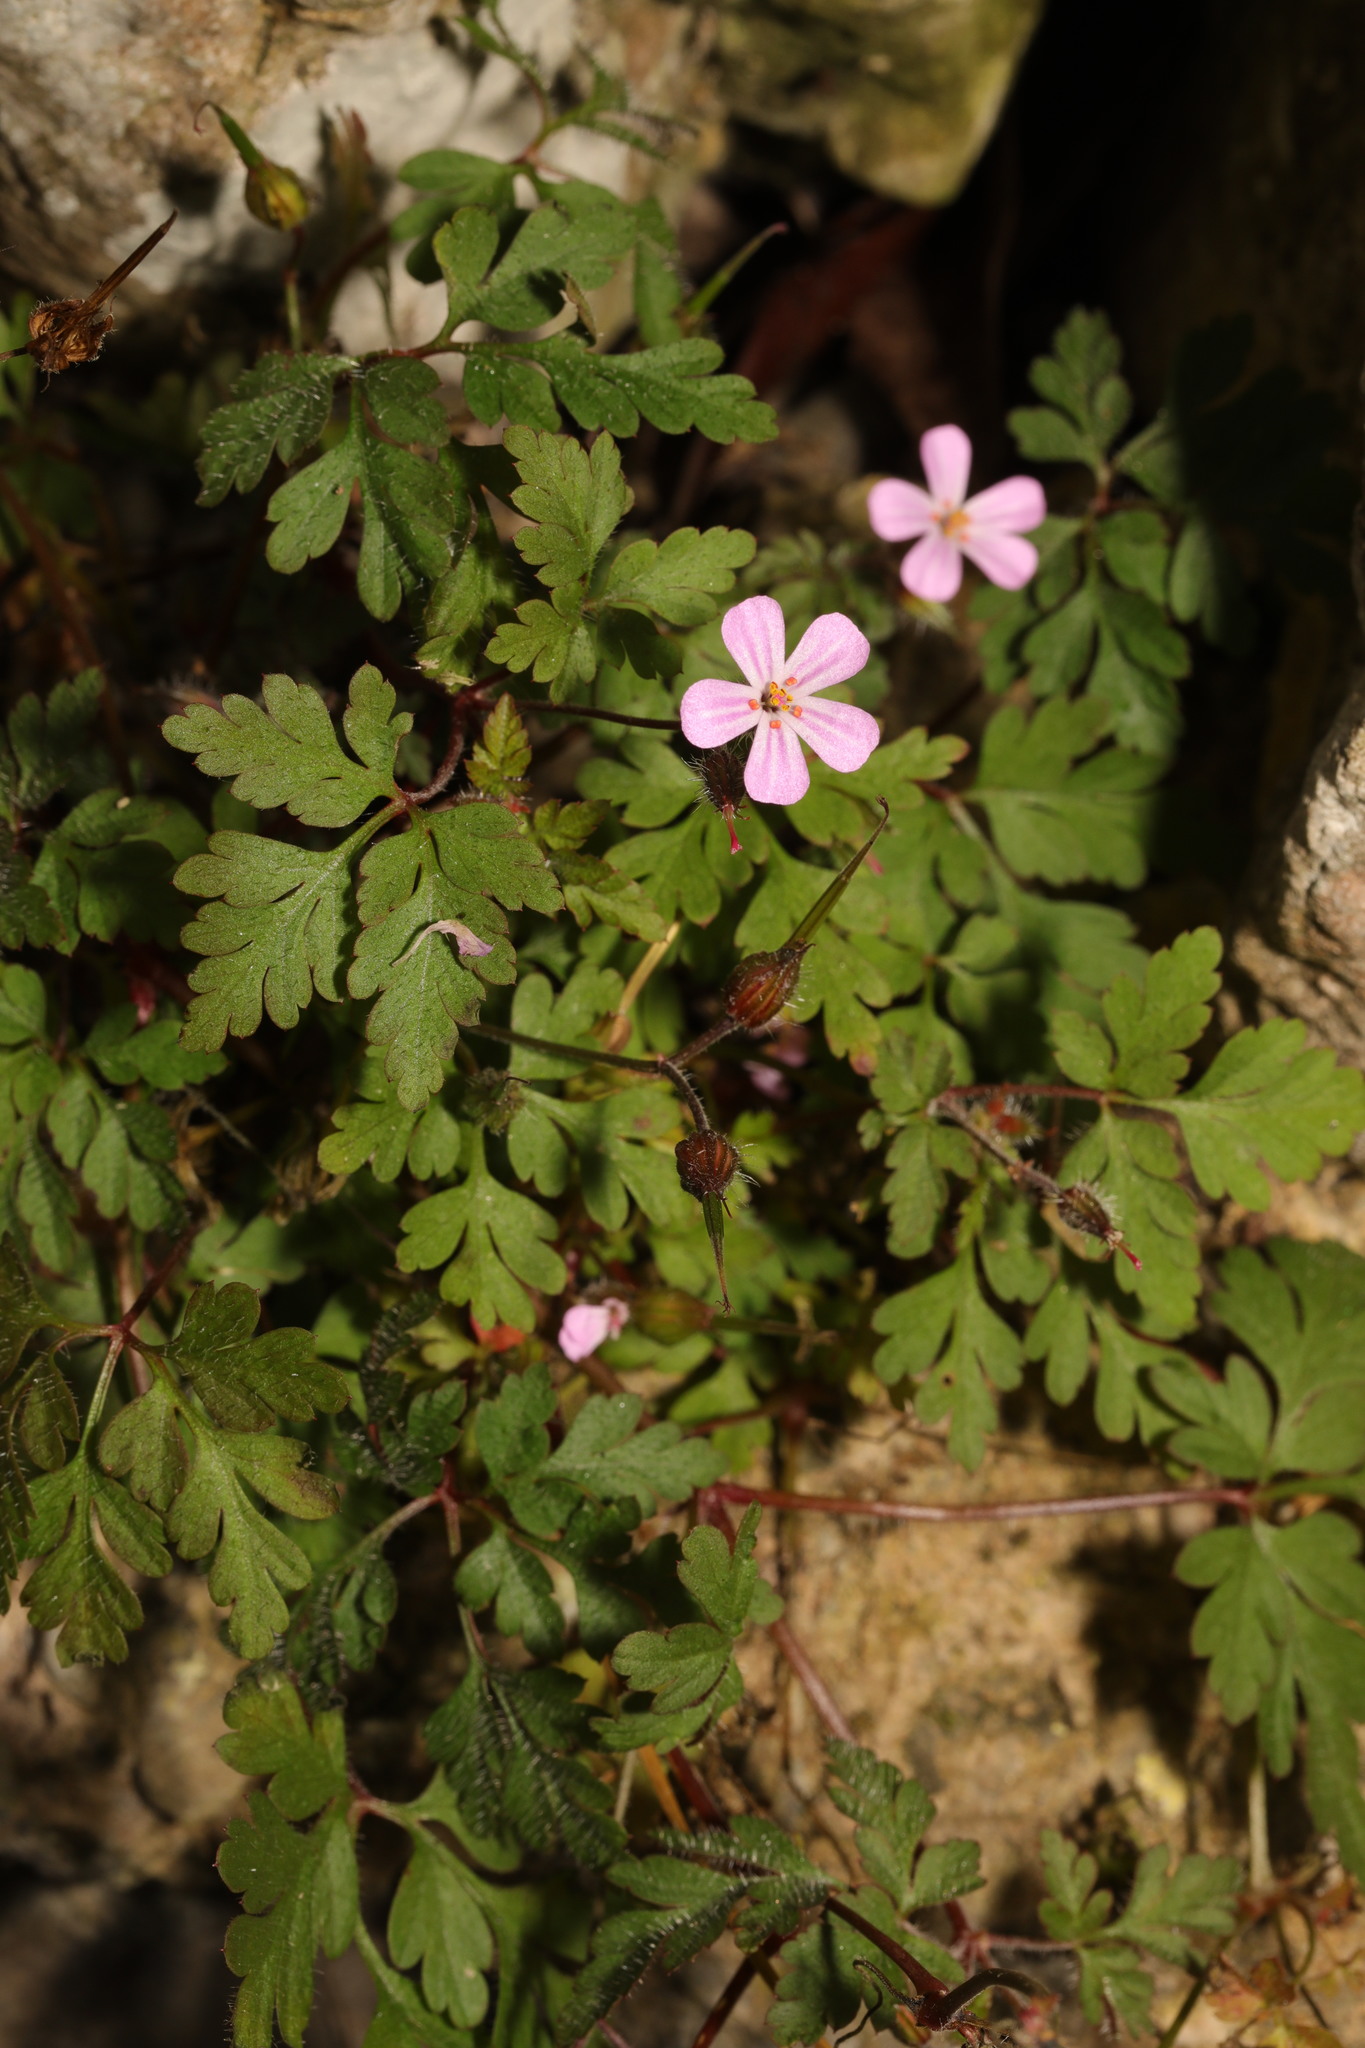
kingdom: Plantae
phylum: Tracheophyta
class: Magnoliopsida
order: Geraniales
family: Geraniaceae
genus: Geranium
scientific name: Geranium robertianum
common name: Herb-robert
